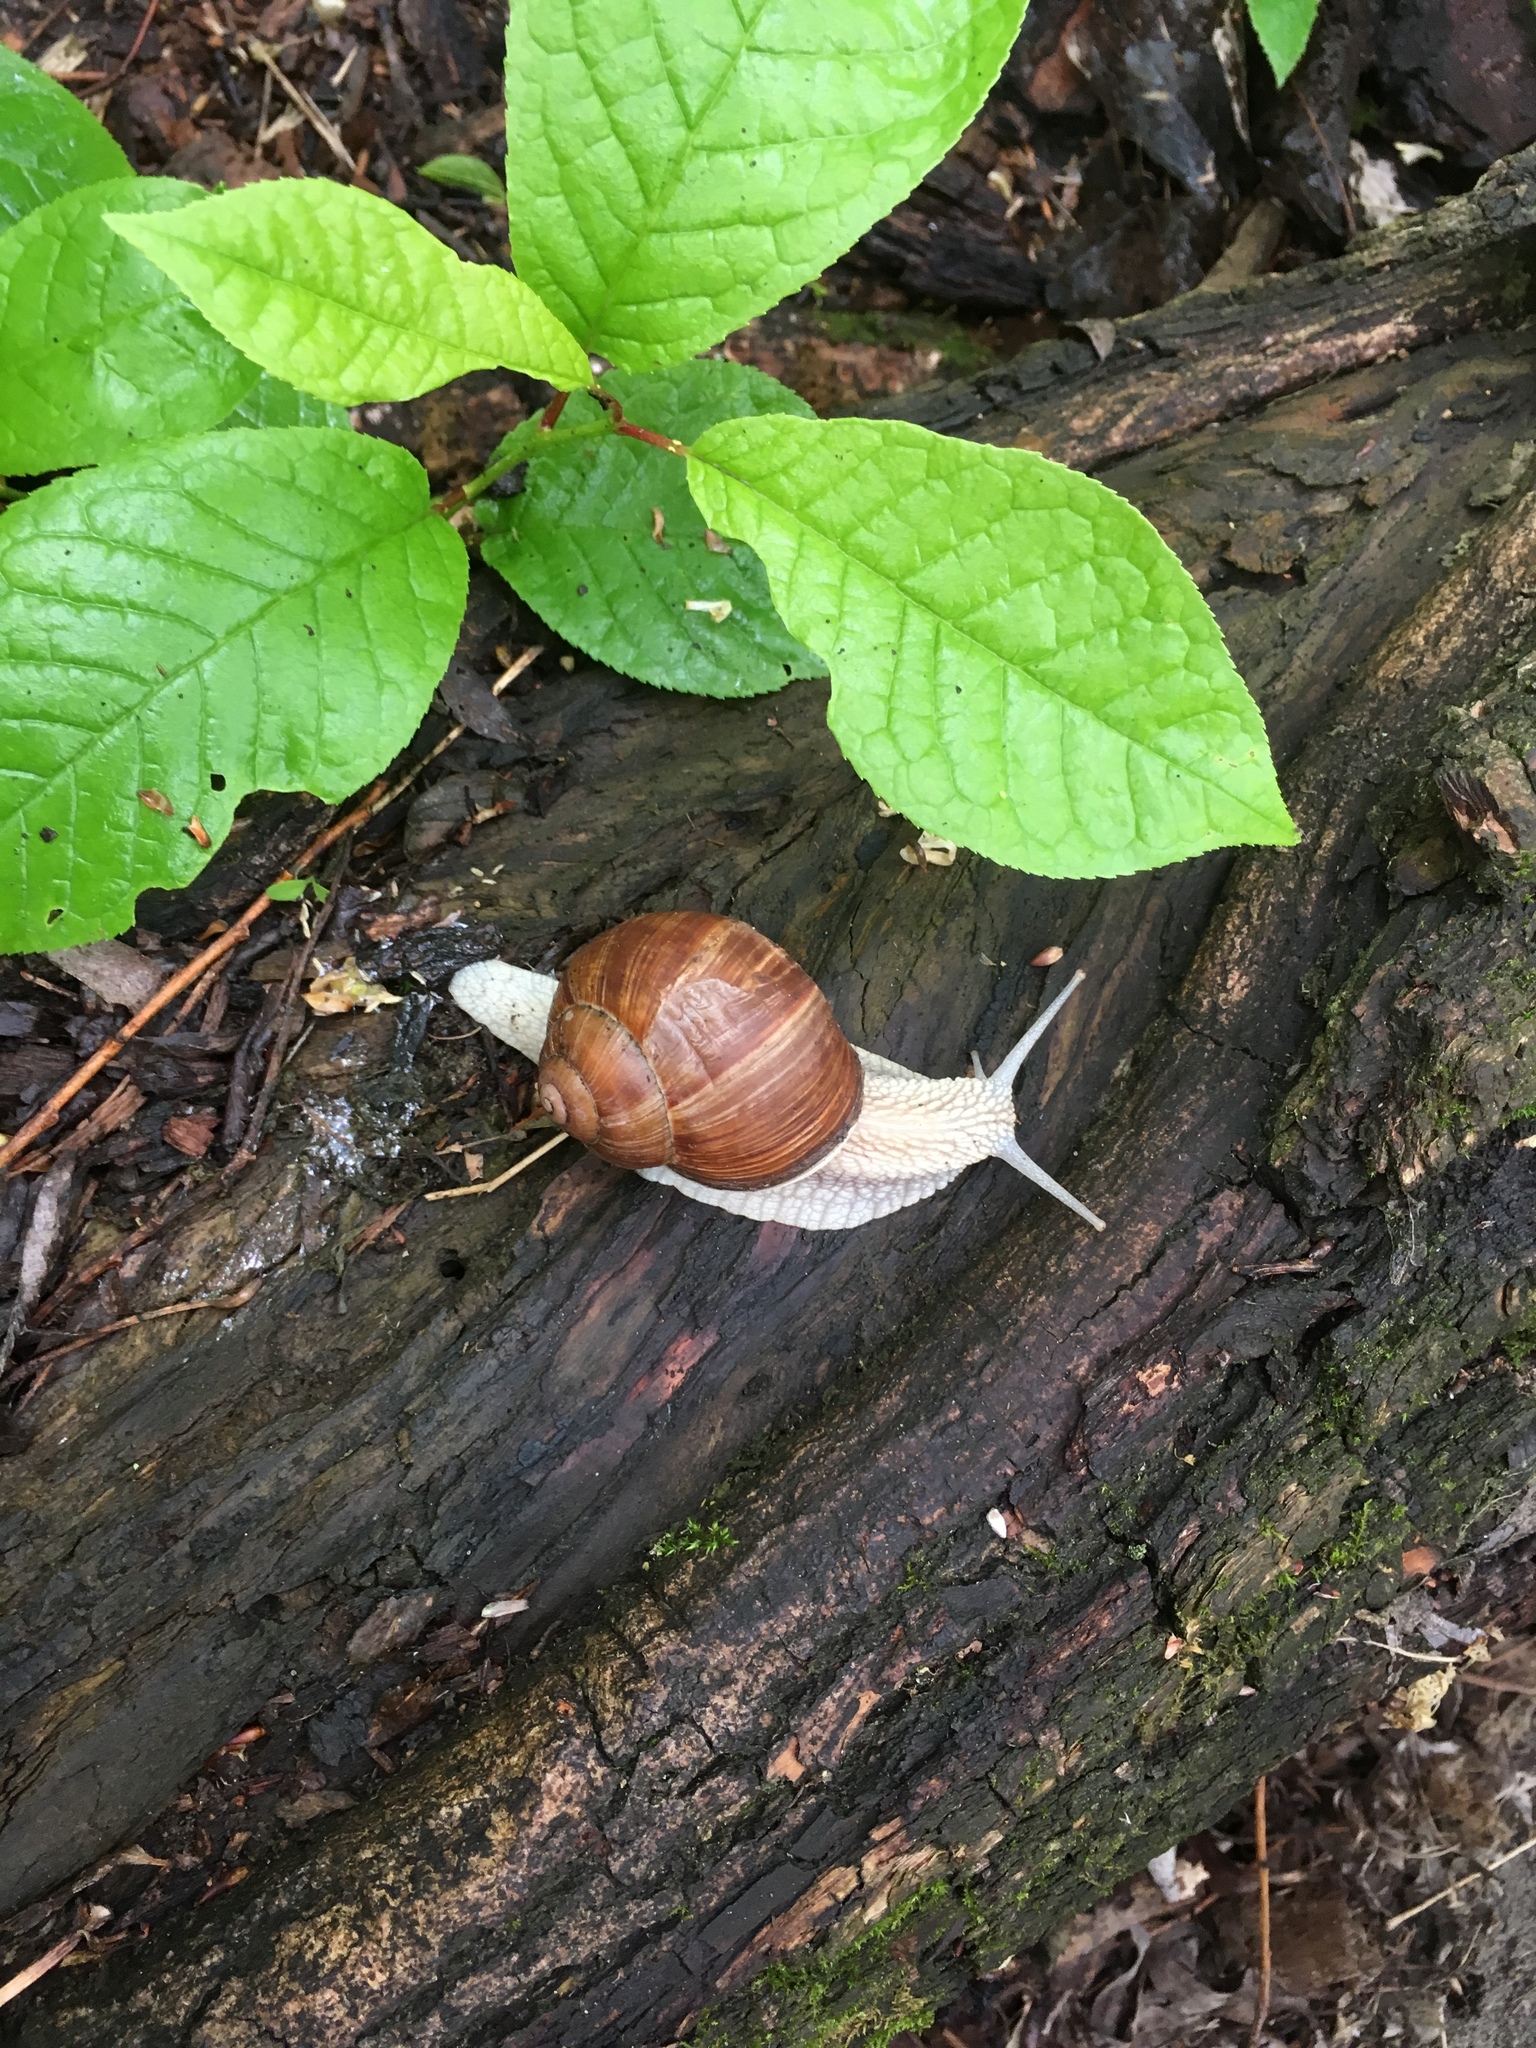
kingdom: Animalia
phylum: Mollusca
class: Gastropoda
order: Stylommatophora
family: Helicidae
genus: Helix
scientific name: Helix pomatia
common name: Roman snail
